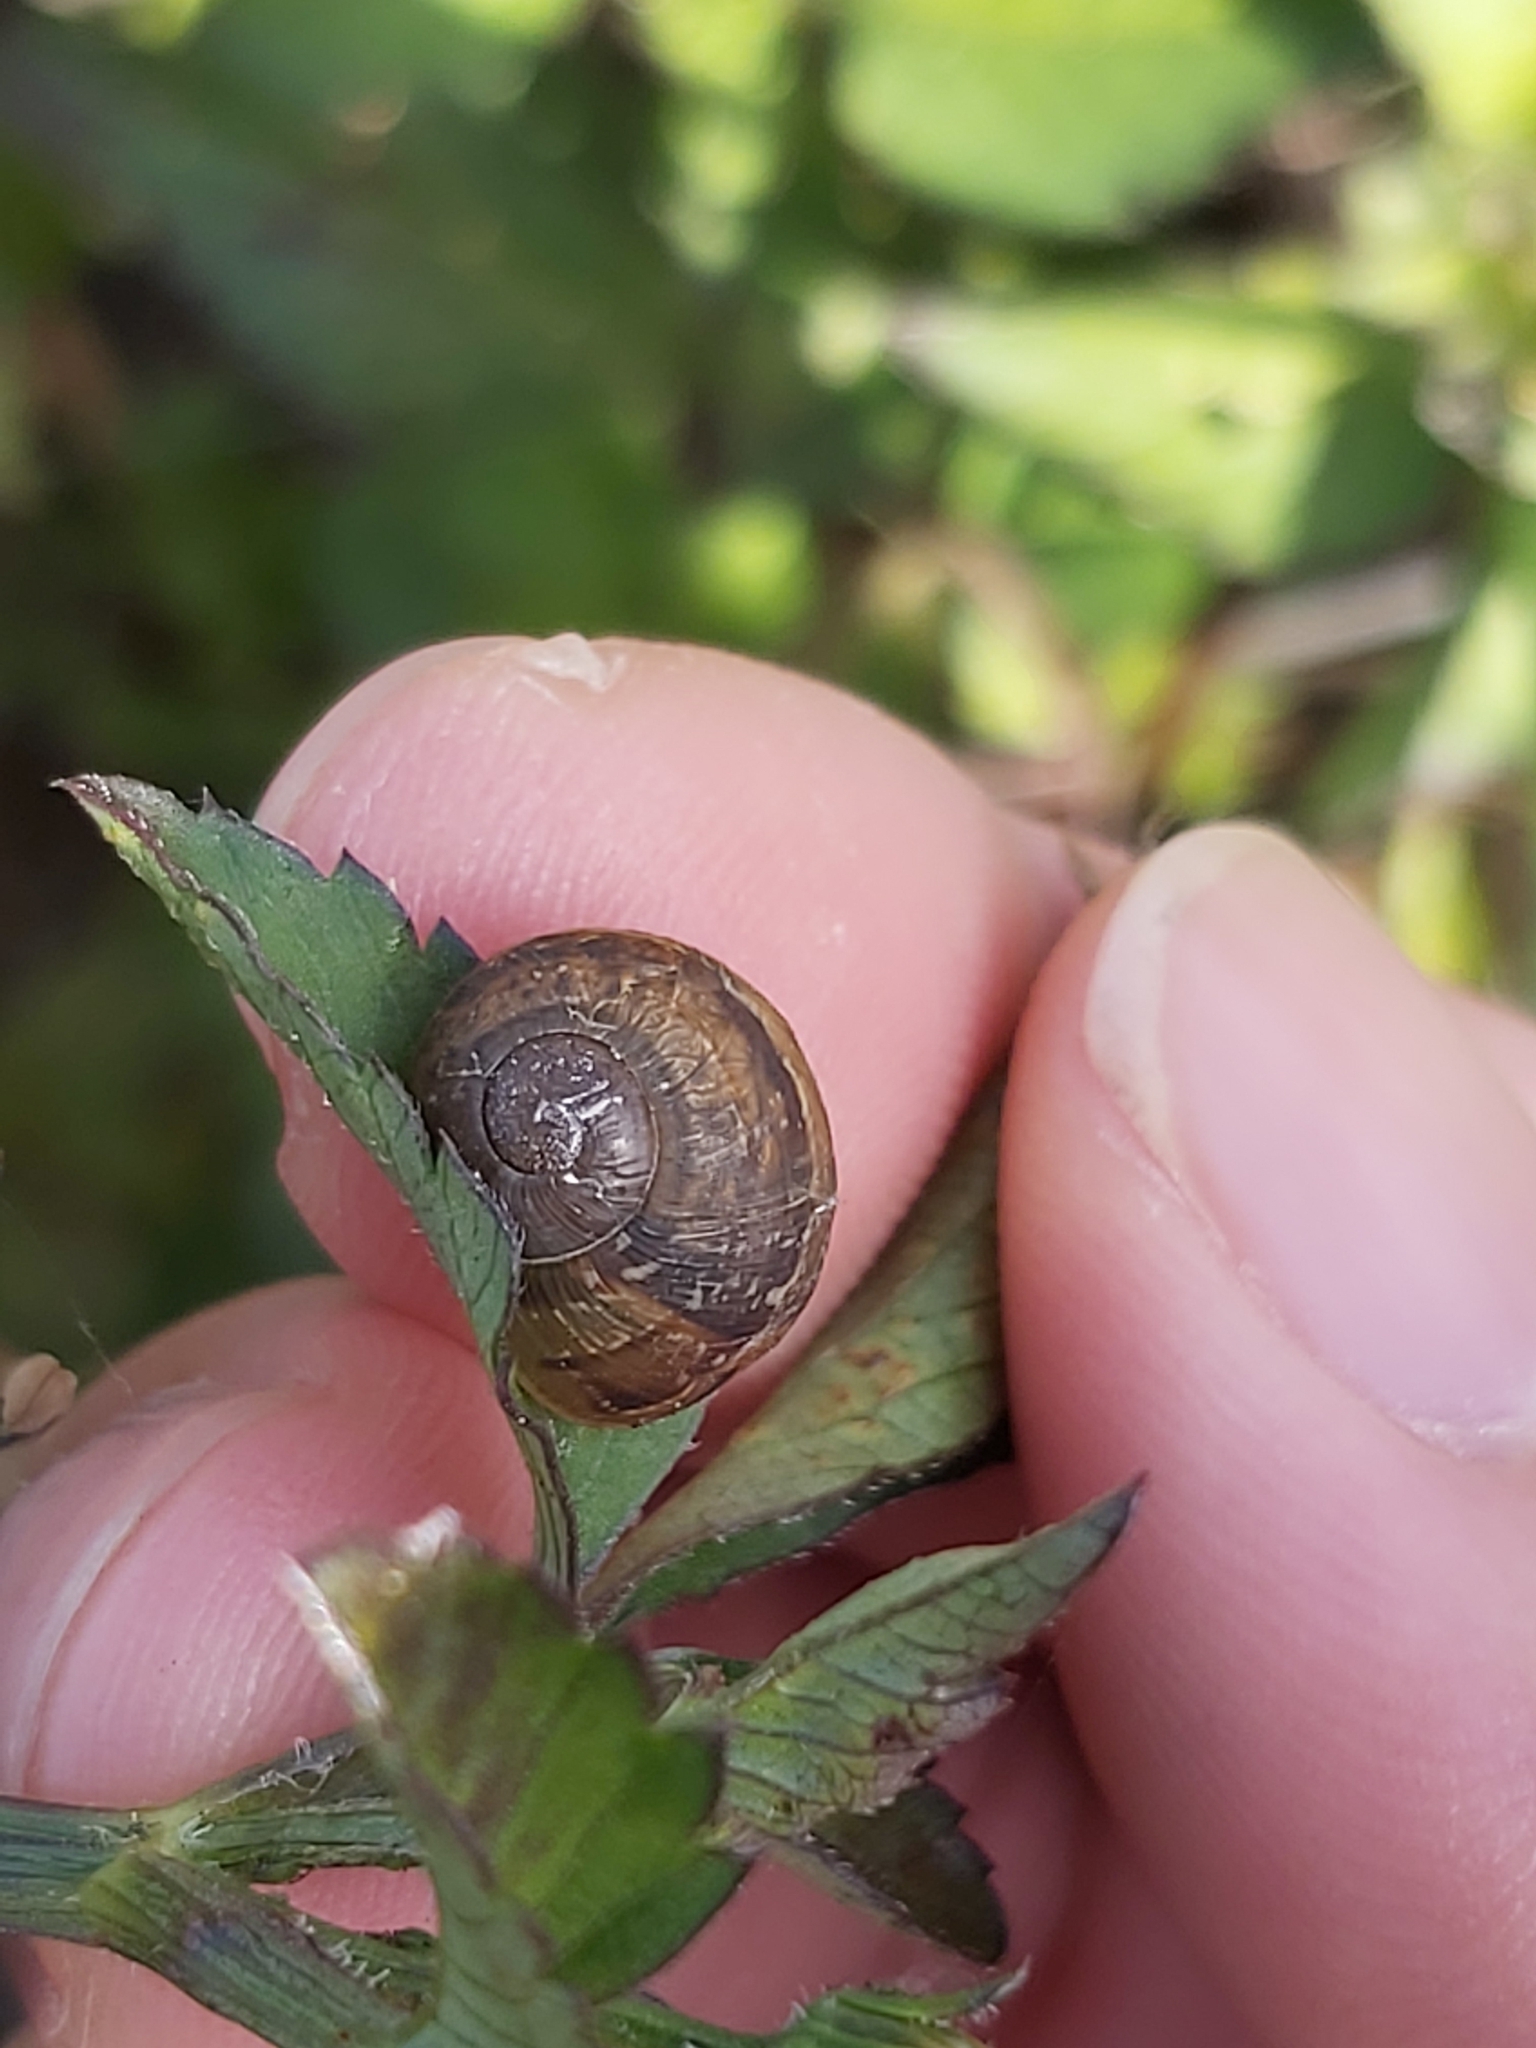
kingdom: Animalia
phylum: Mollusca
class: Gastropoda
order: Stylommatophora
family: Helicidae
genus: Cornu
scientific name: Cornu aspersum
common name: Brown garden snail
